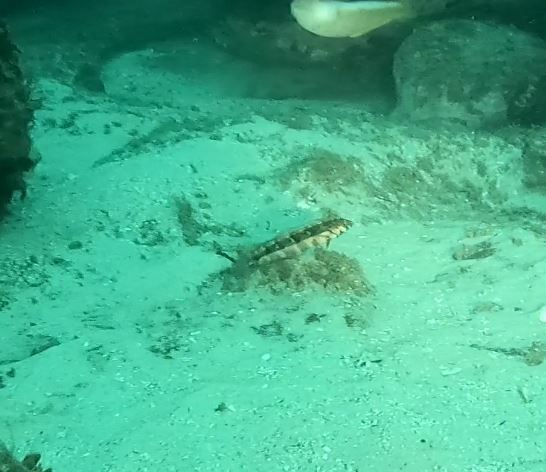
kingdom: Animalia
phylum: Chordata
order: Perciformes
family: Labridae
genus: Eupetrichthys
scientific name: Eupetrichthys angustipes
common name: Snake-skin wrasse
